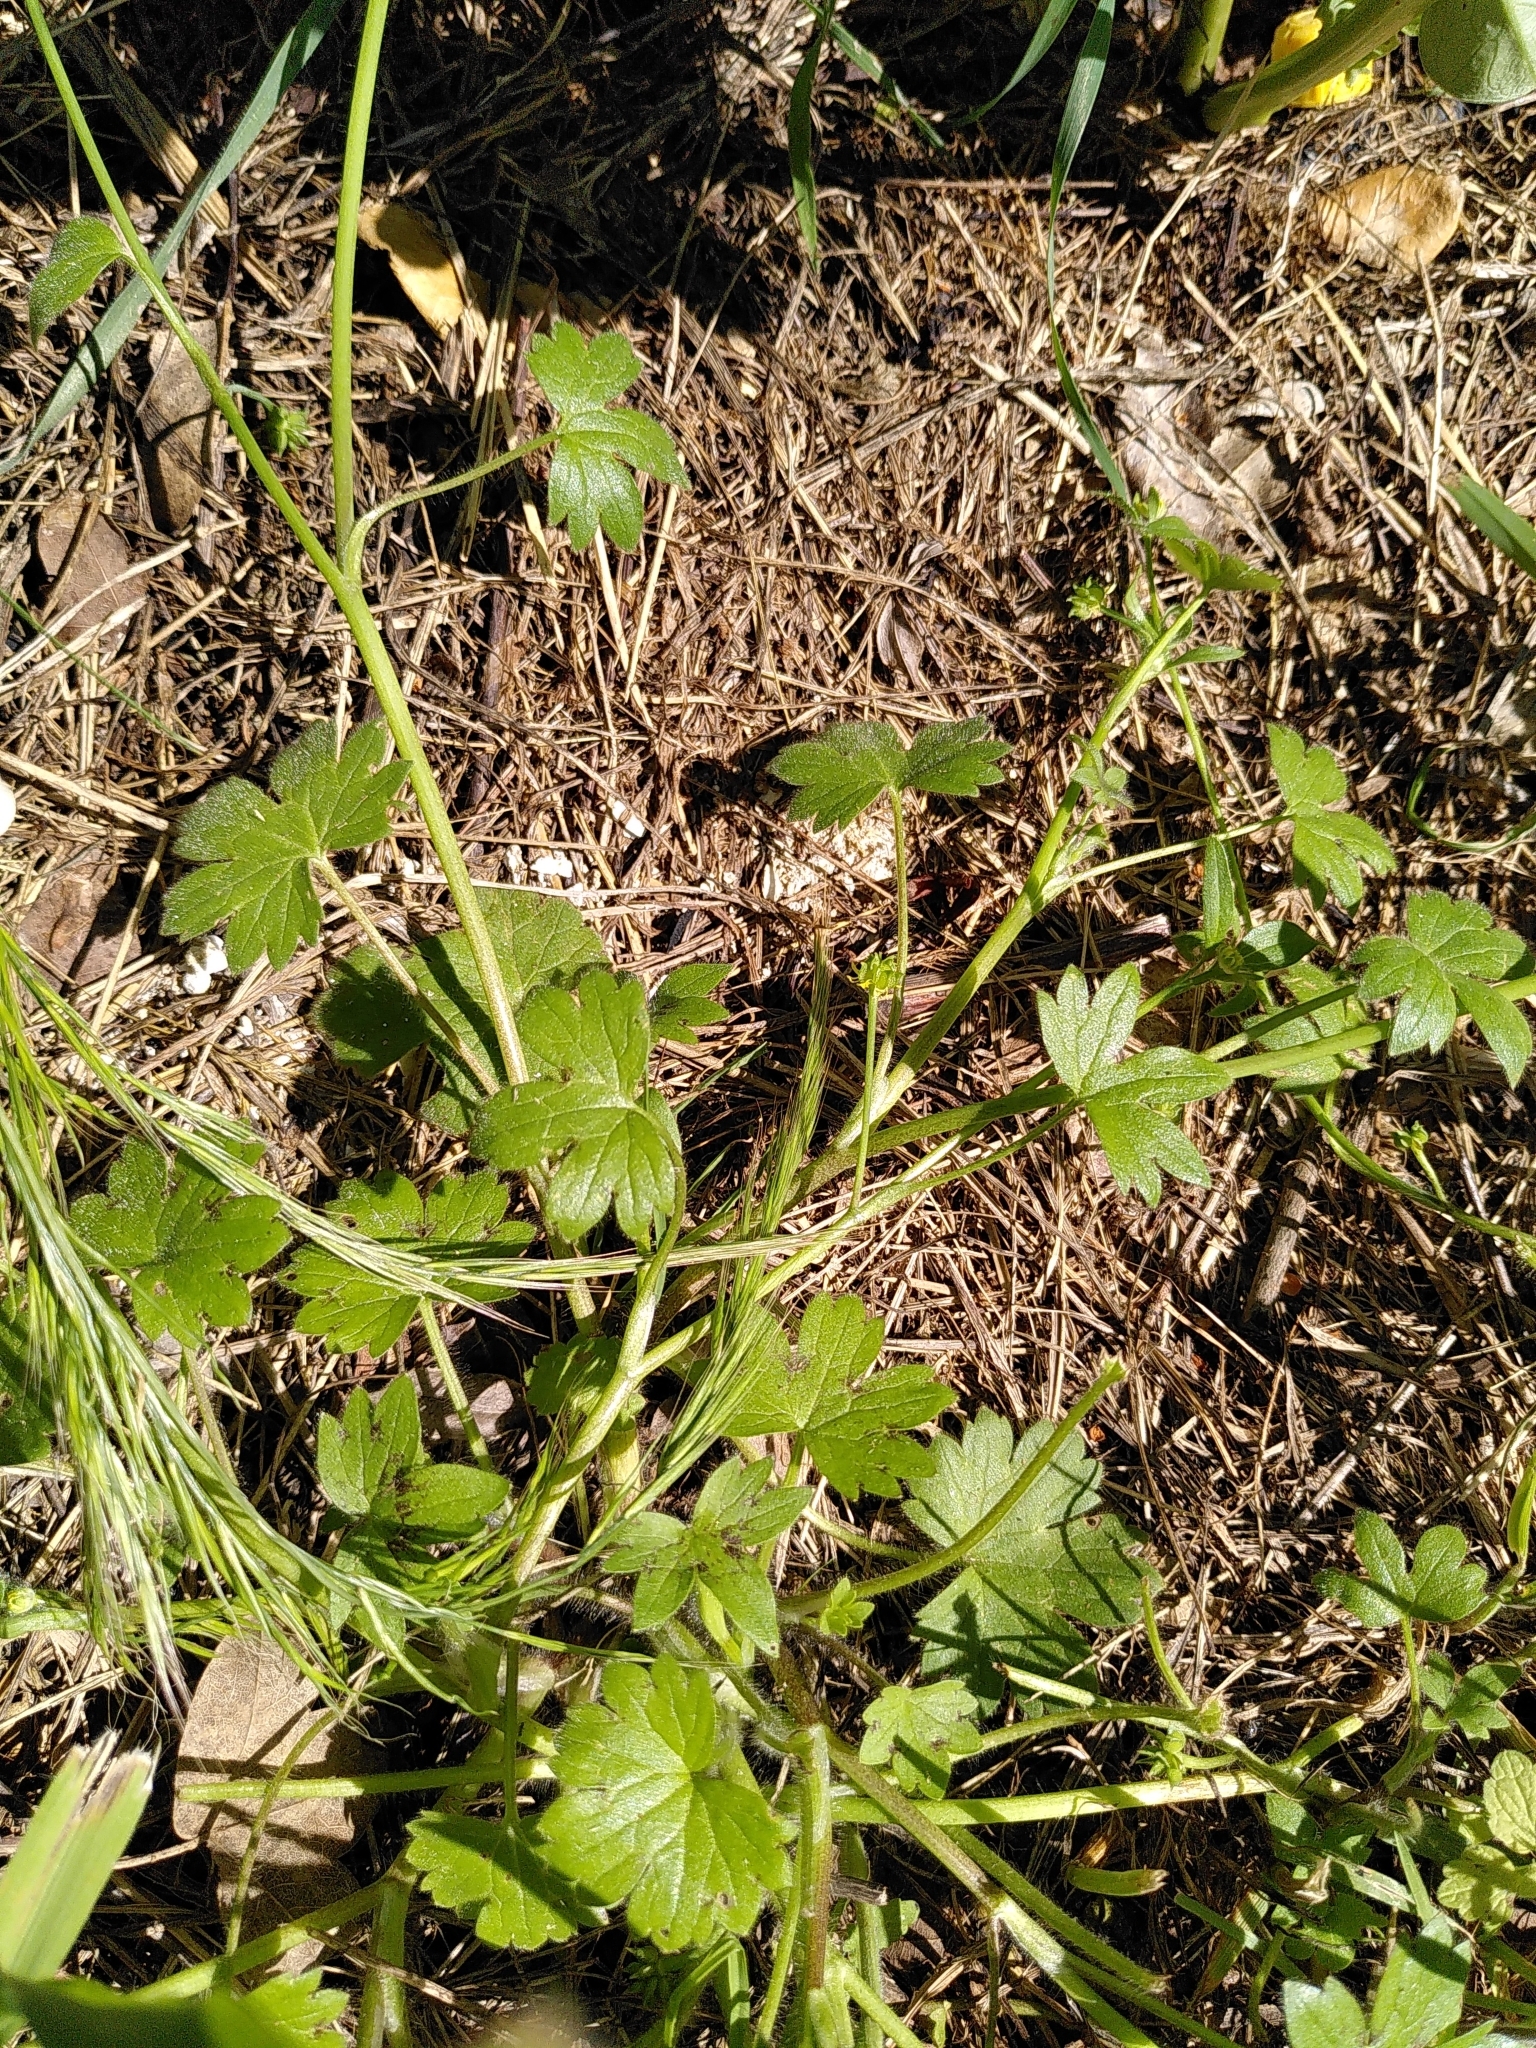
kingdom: Plantae
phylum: Tracheophyta
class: Magnoliopsida
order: Ranunculales
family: Ranunculaceae
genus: Ranunculus
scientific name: Ranunculus parviflorus
